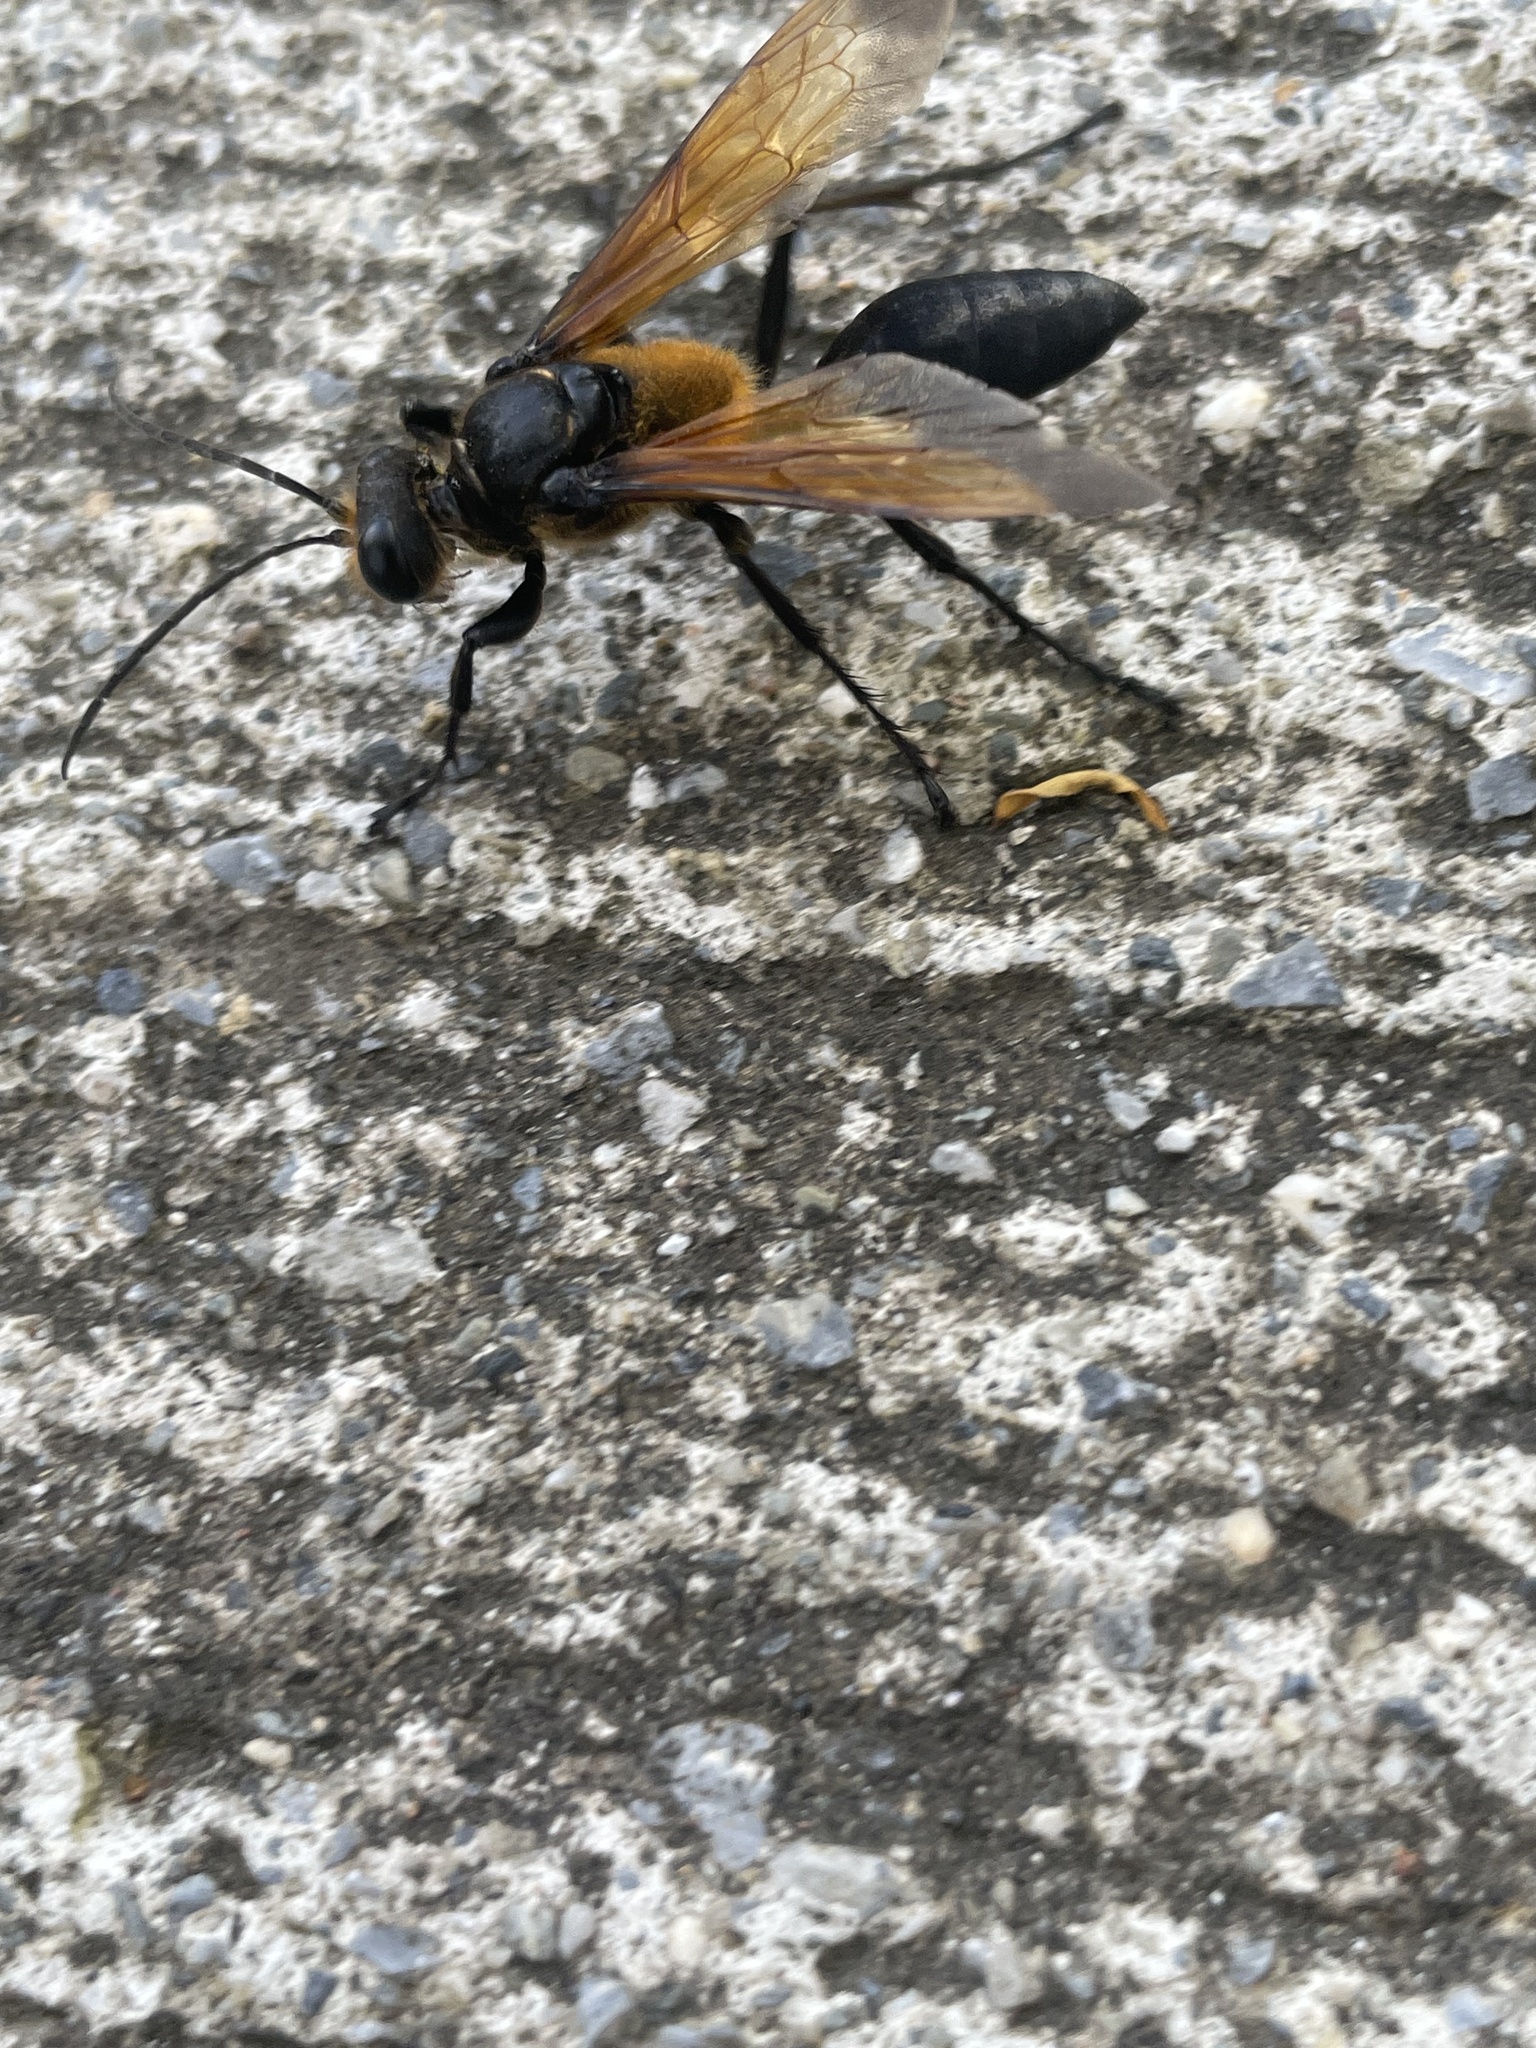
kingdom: Animalia
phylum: Arthropoda
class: Insecta
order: Hymenoptera
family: Sphecidae
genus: Sphex
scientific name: Sphex diabolicus
